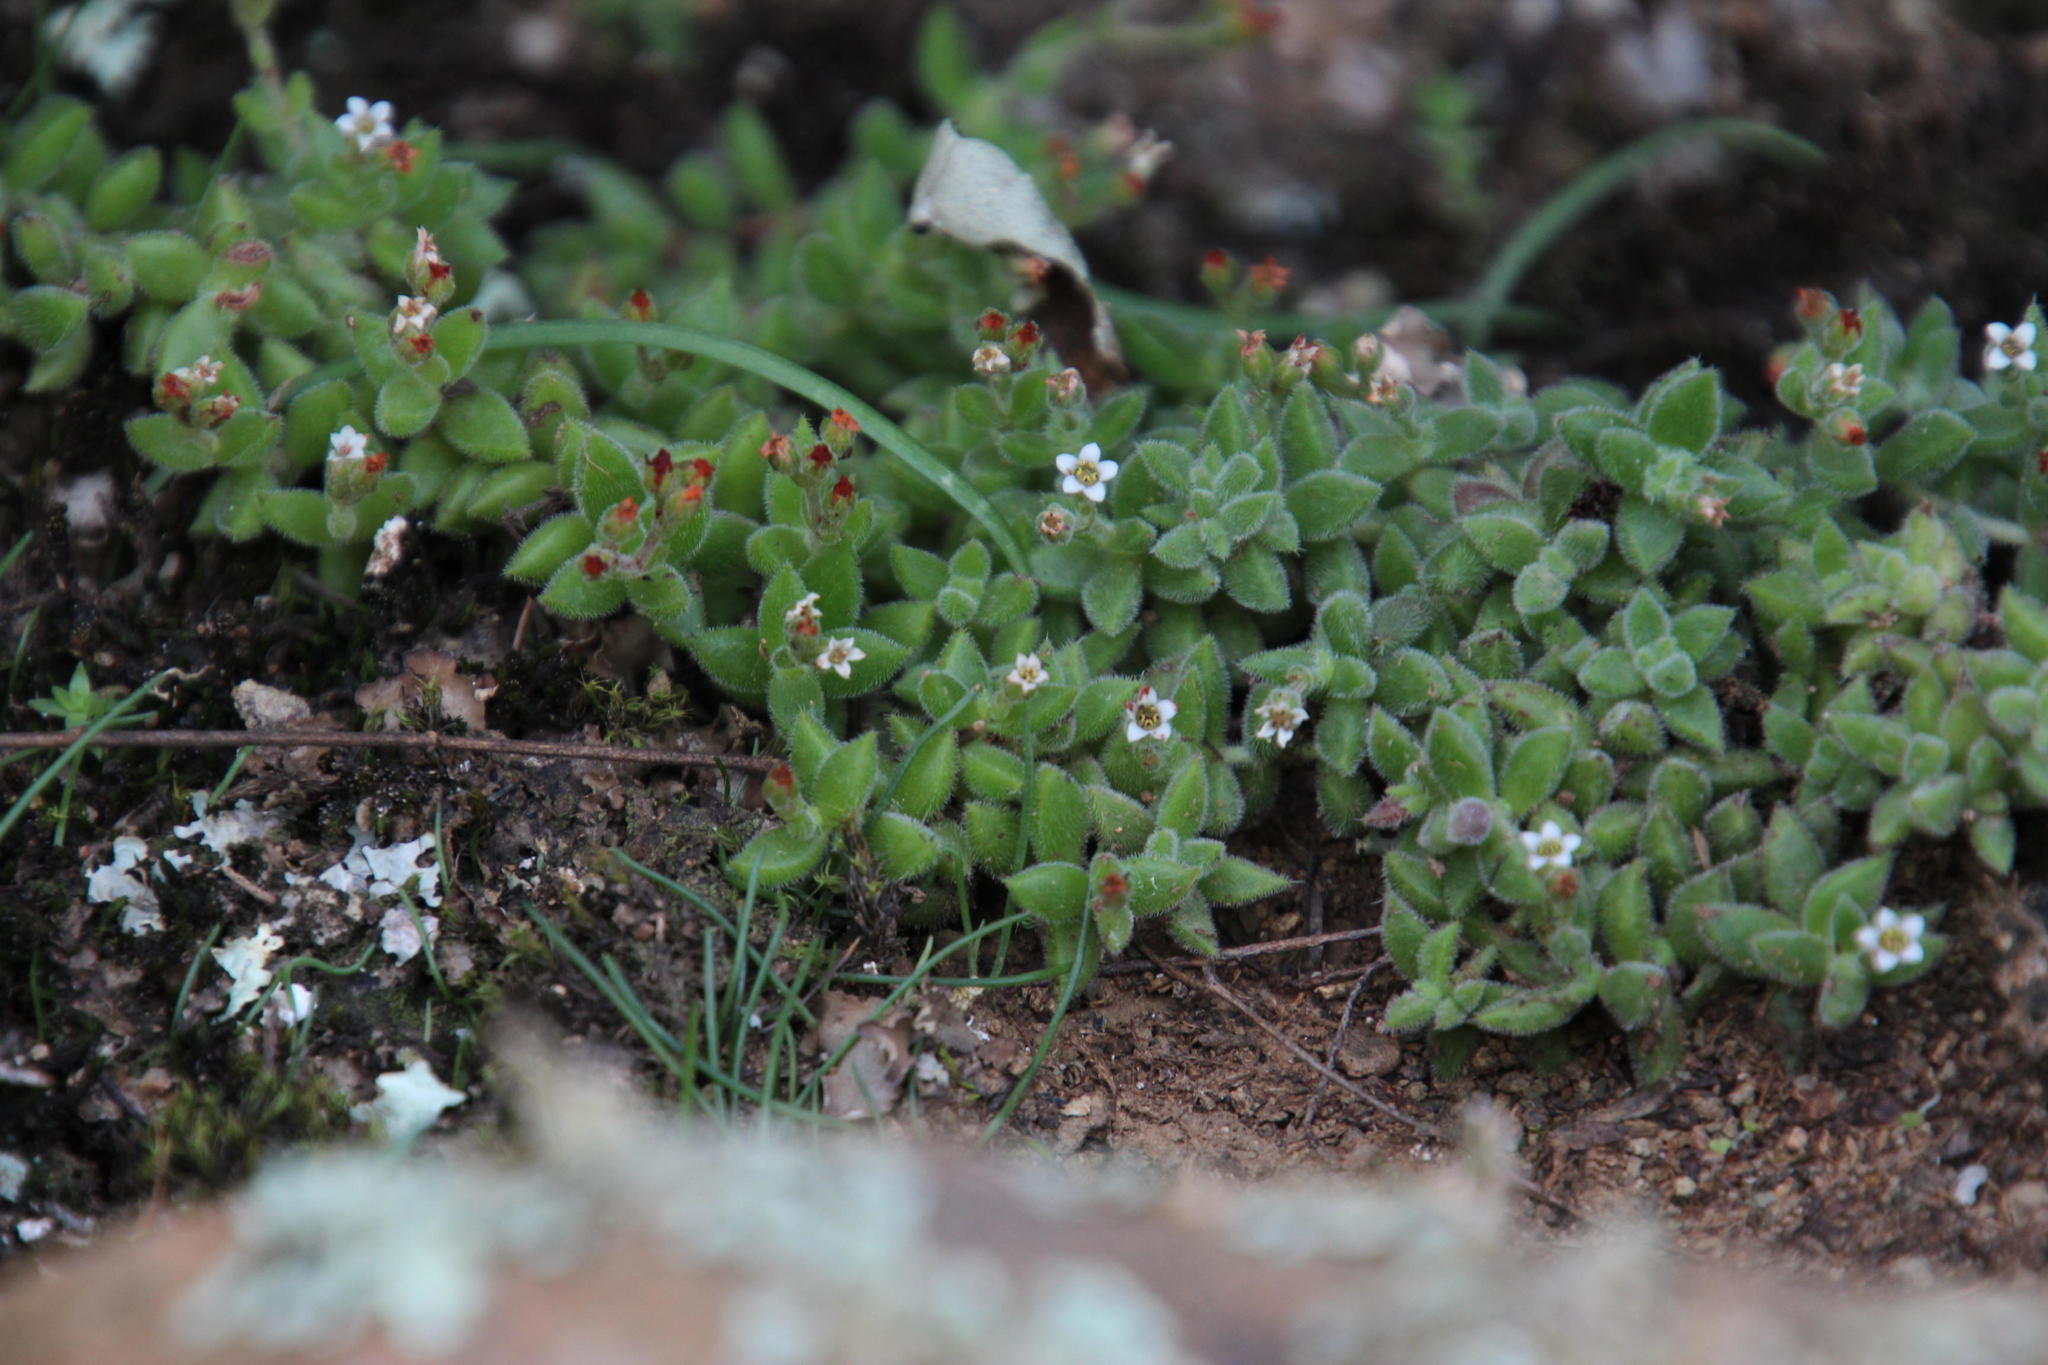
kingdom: Plantae
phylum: Tracheophyta
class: Magnoliopsida
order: Saxifragales
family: Crassulaceae
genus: Crassula
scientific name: Crassula lanuginosa
